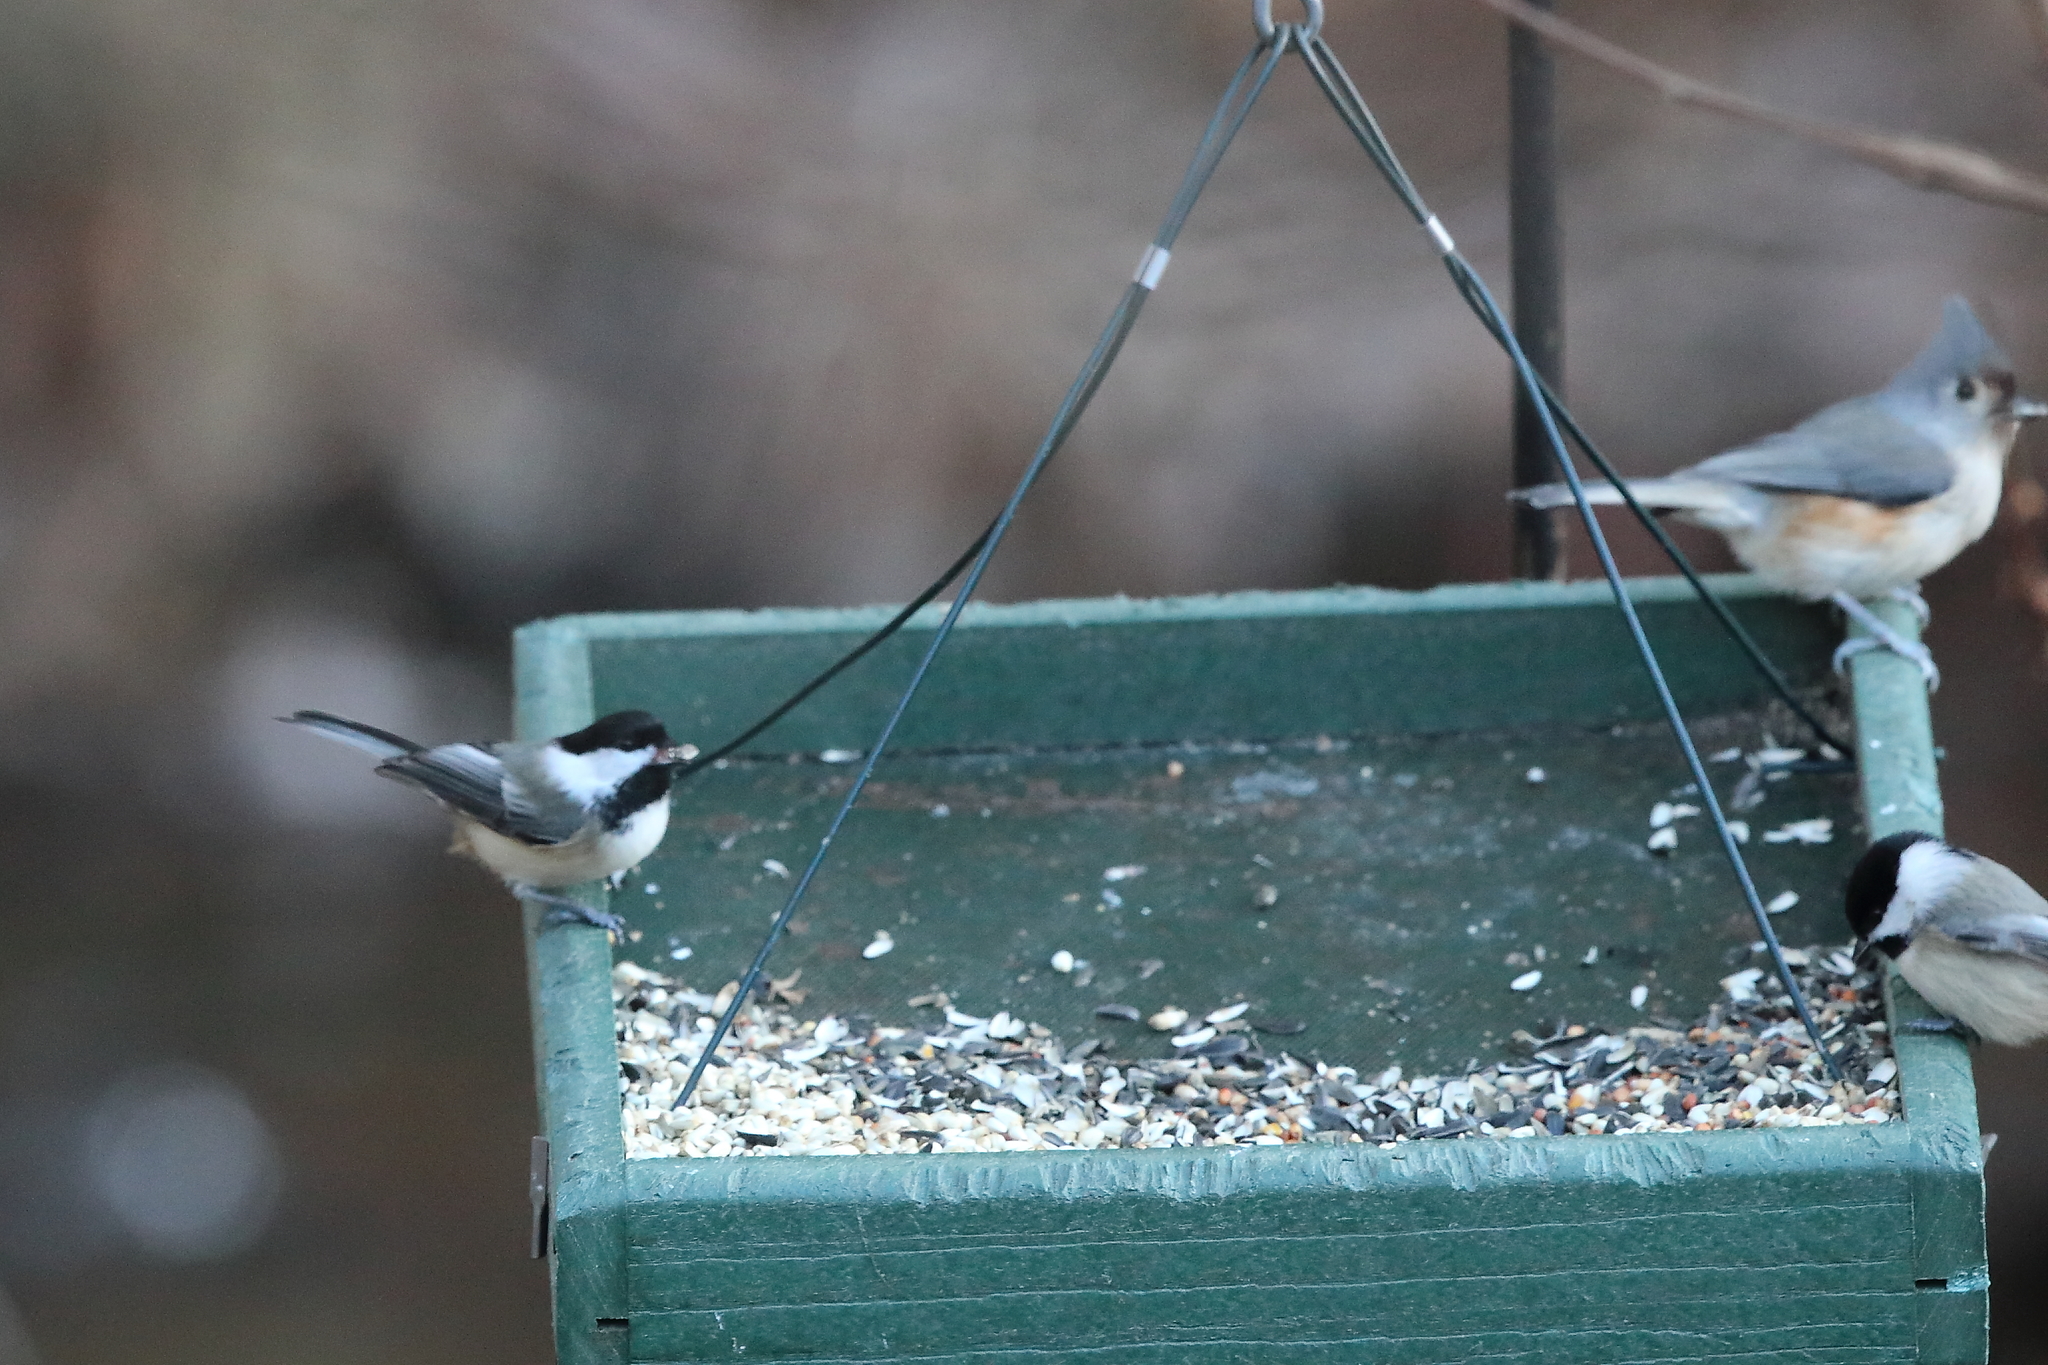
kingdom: Animalia
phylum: Chordata
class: Aves
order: Passeriformes
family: Paridae
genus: Poecile
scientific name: Poecile carolinensis
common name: Carolina chickadee
